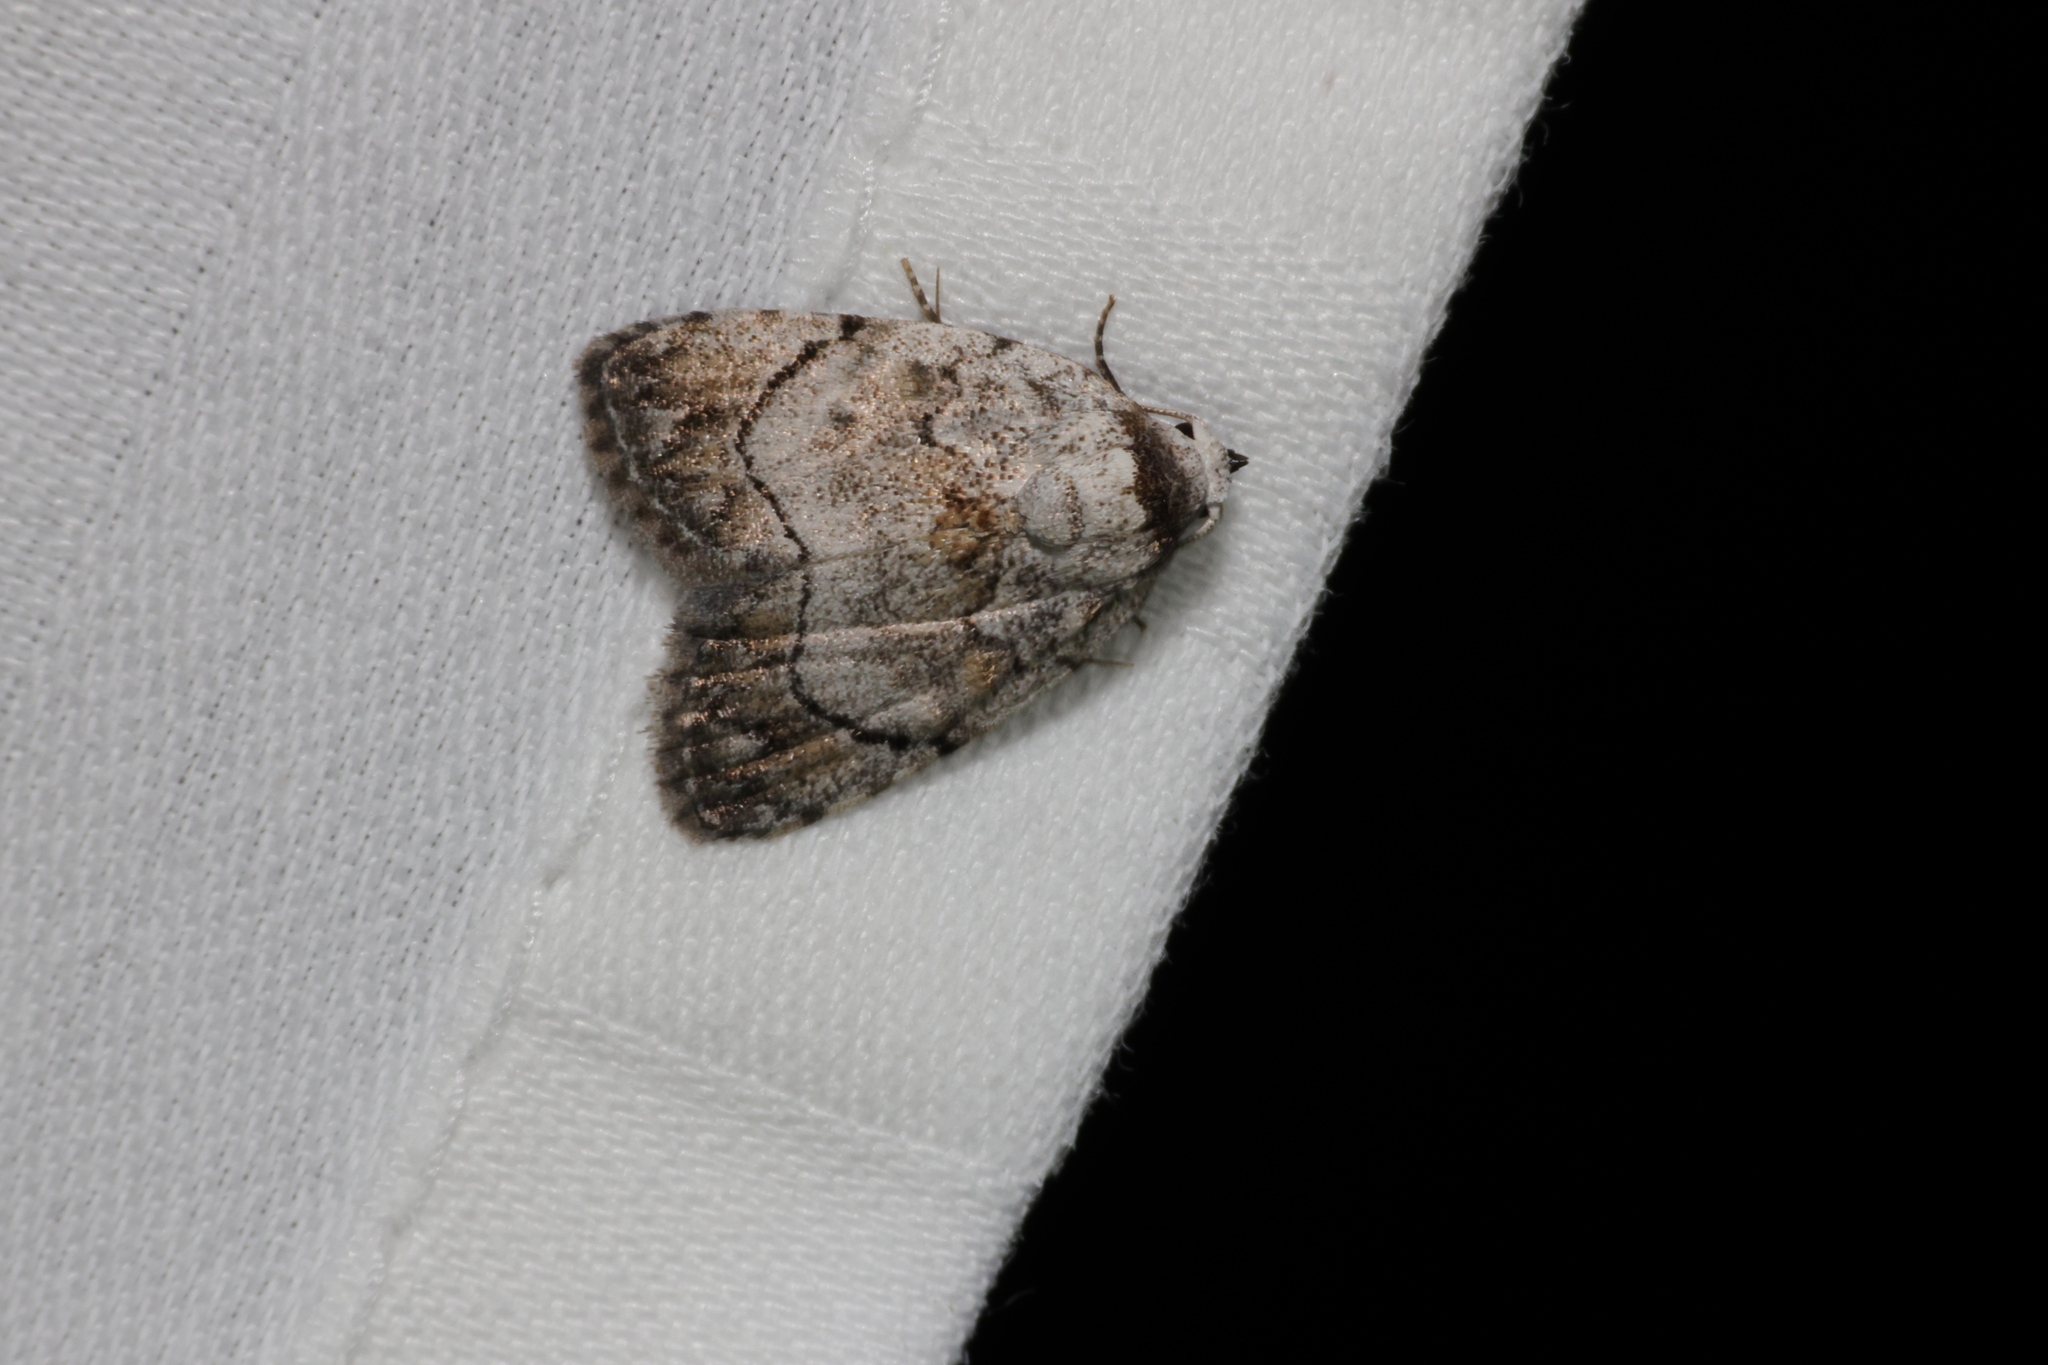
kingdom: Animalia
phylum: Arthropoda
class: Insecta
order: Lepidoptera
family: Nolidae
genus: Melanographia
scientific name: Melanographia flexilineata
